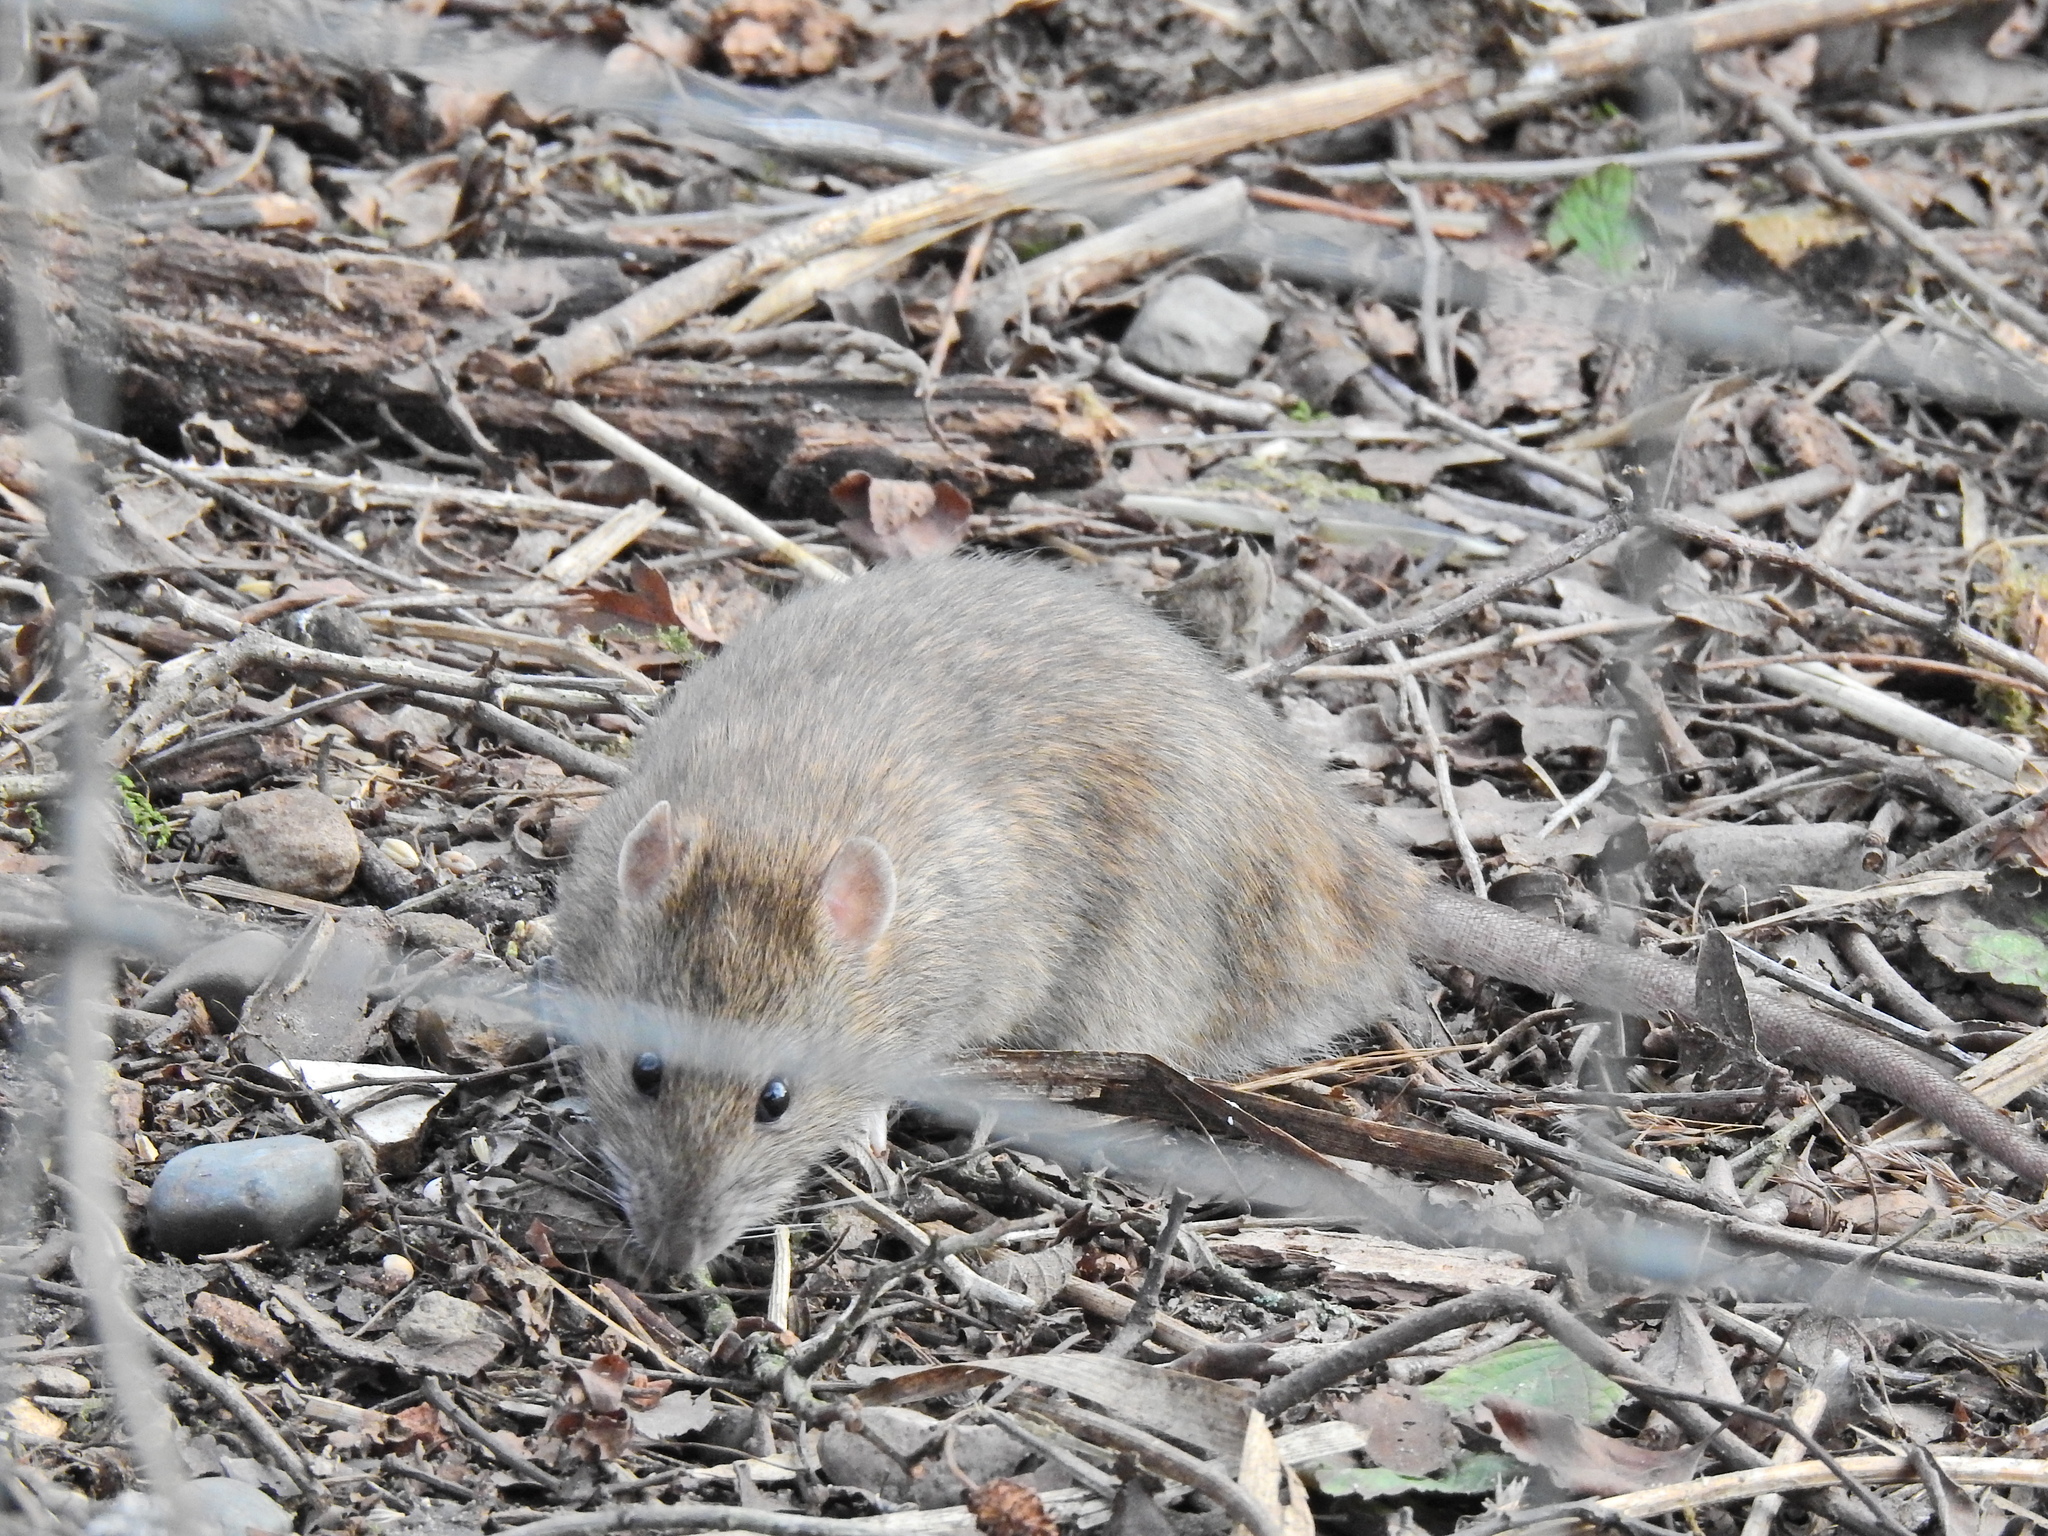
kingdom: Animalia
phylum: Chordata
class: Mammalia
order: Rodentia
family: Muridae
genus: Rattus
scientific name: Rattus norvegicus
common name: Brown rat
